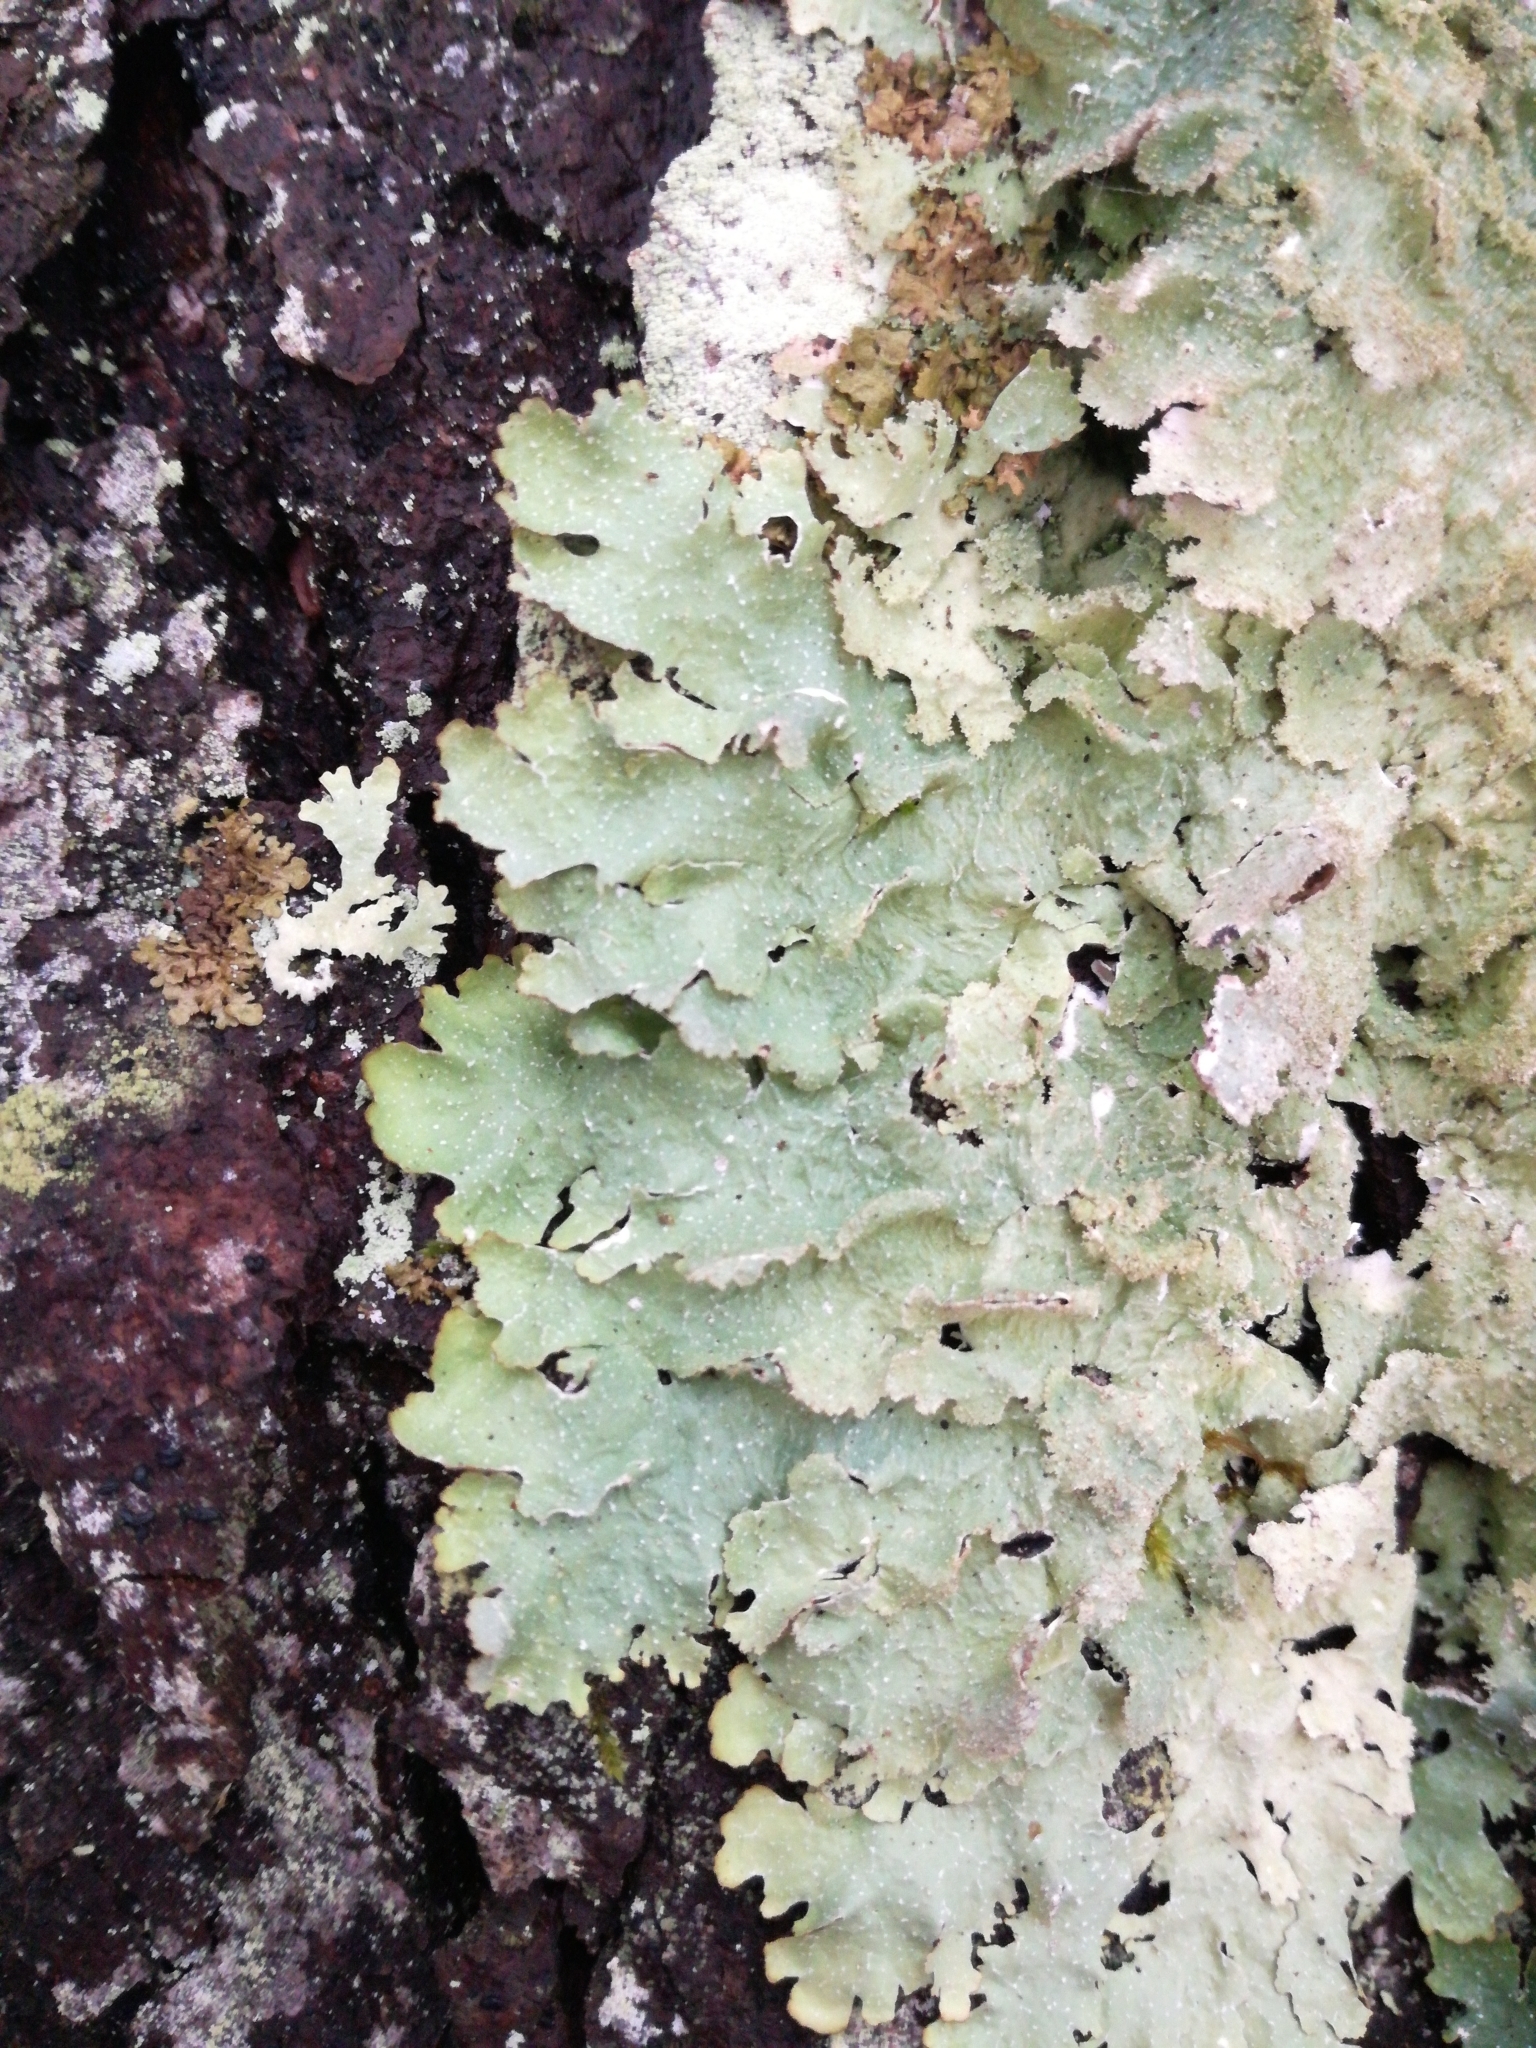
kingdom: Fungi
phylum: Ascomycota
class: Lecanoromycetes
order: Lecanorales
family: Parmeliaceae
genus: Punctelia
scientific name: Punctelia rudecta
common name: Rough speckled shield lichen
